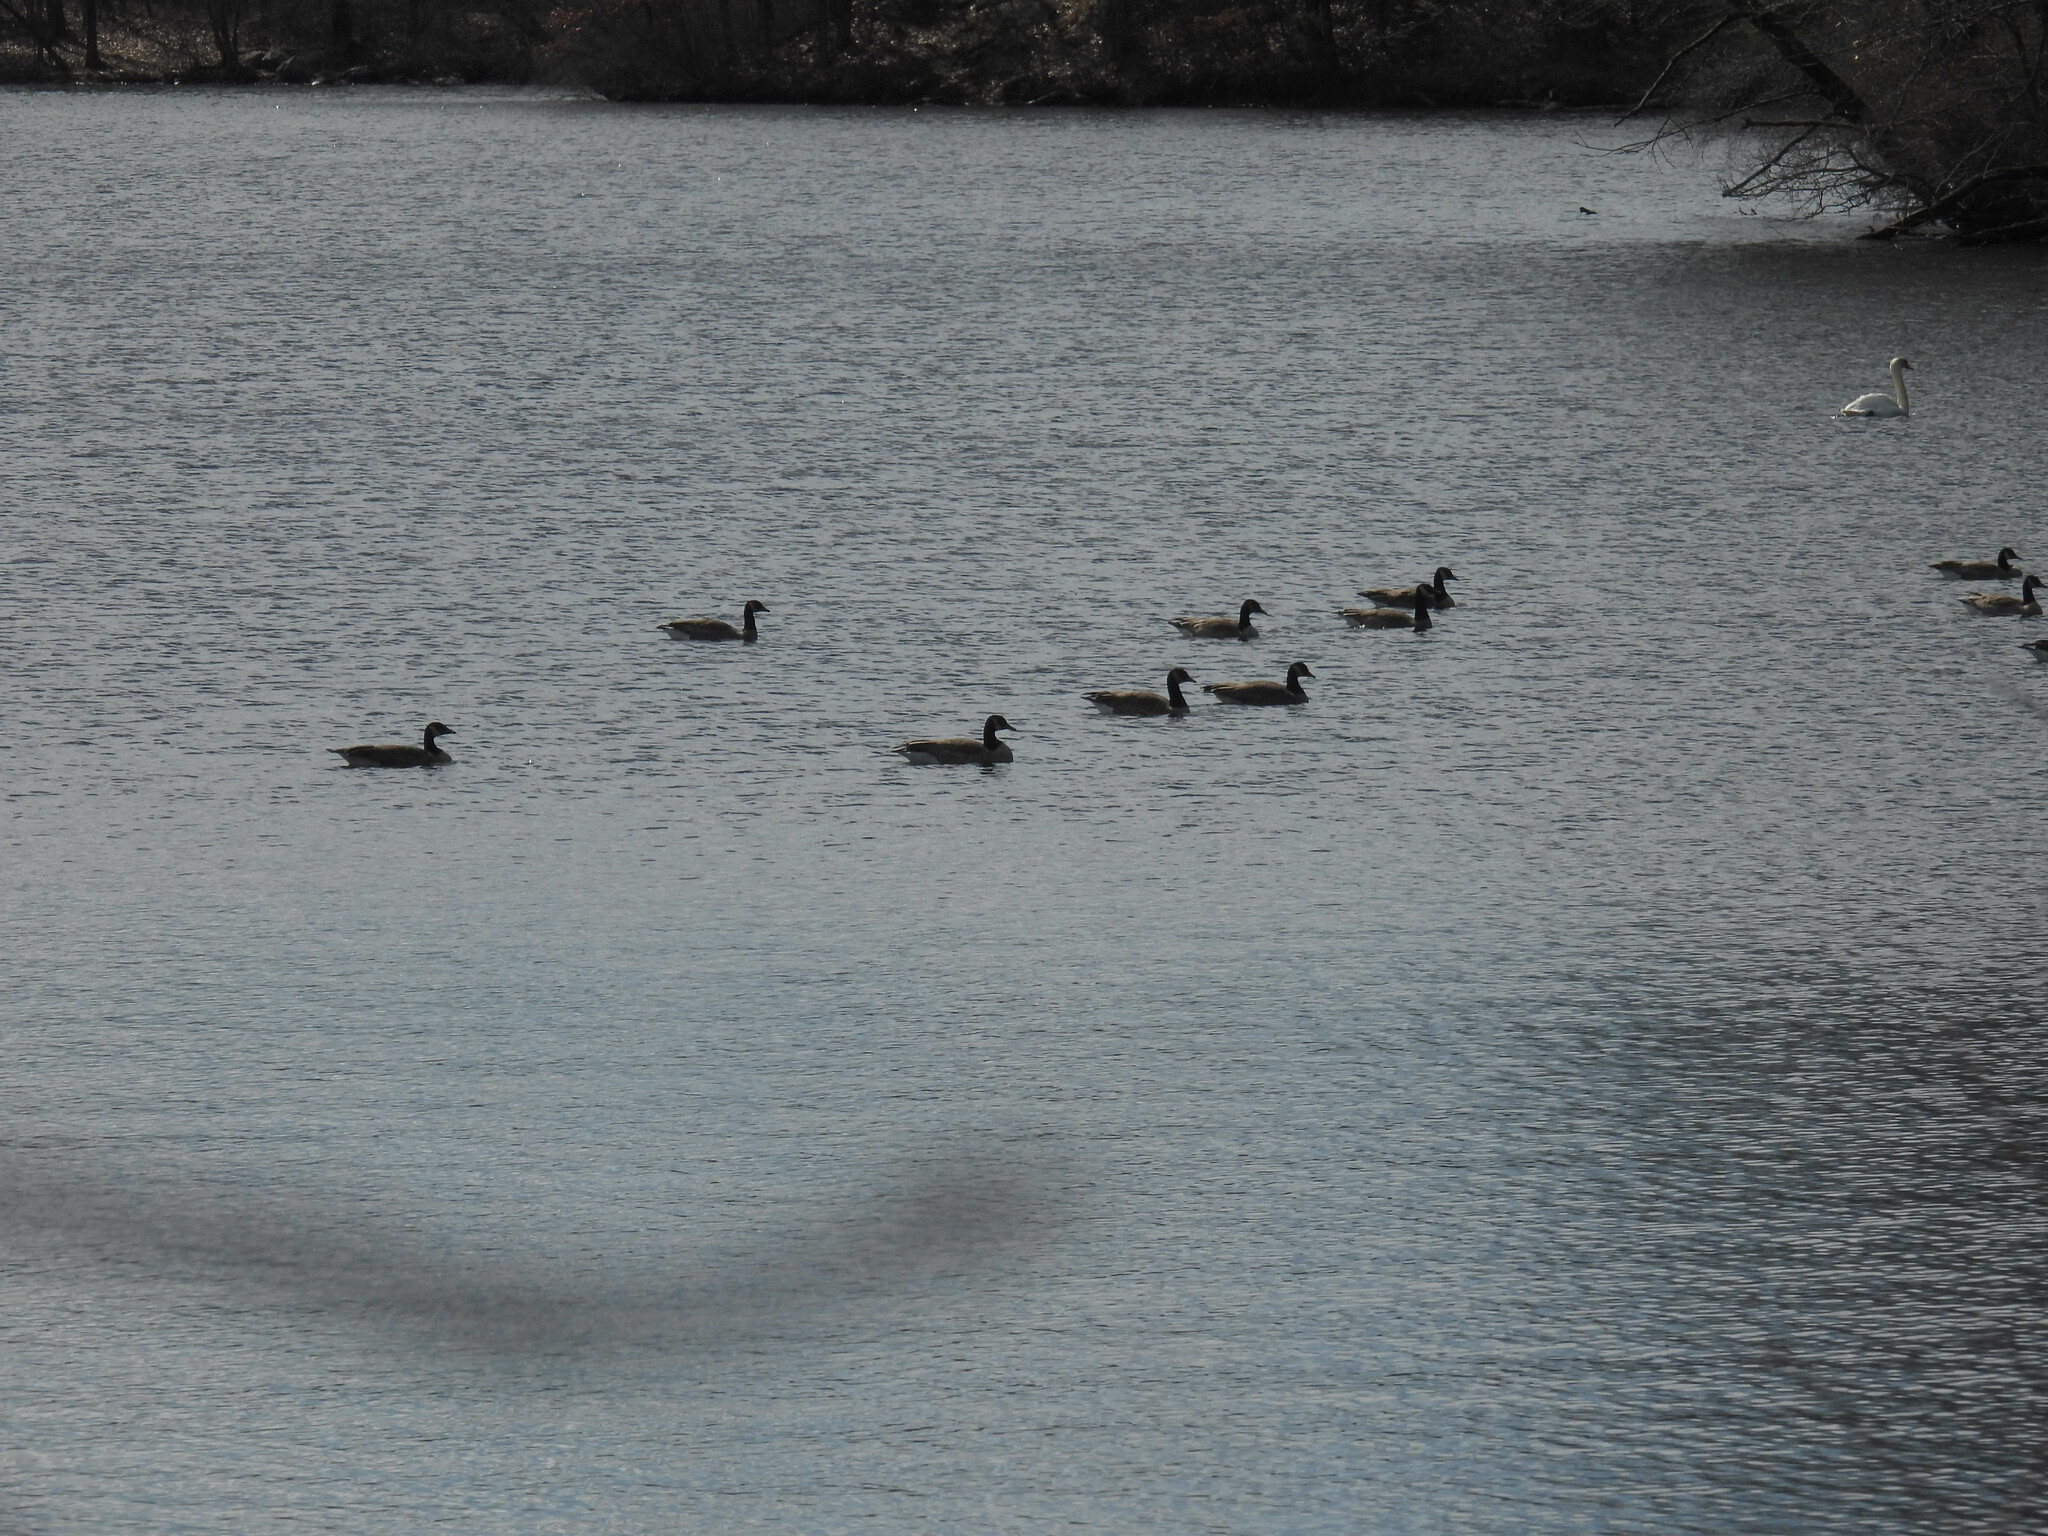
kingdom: Animalia
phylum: Chordata
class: Aves
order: Anseriformes
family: Anatidae
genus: Branta
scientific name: Branta canadensis
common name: Canada goose
